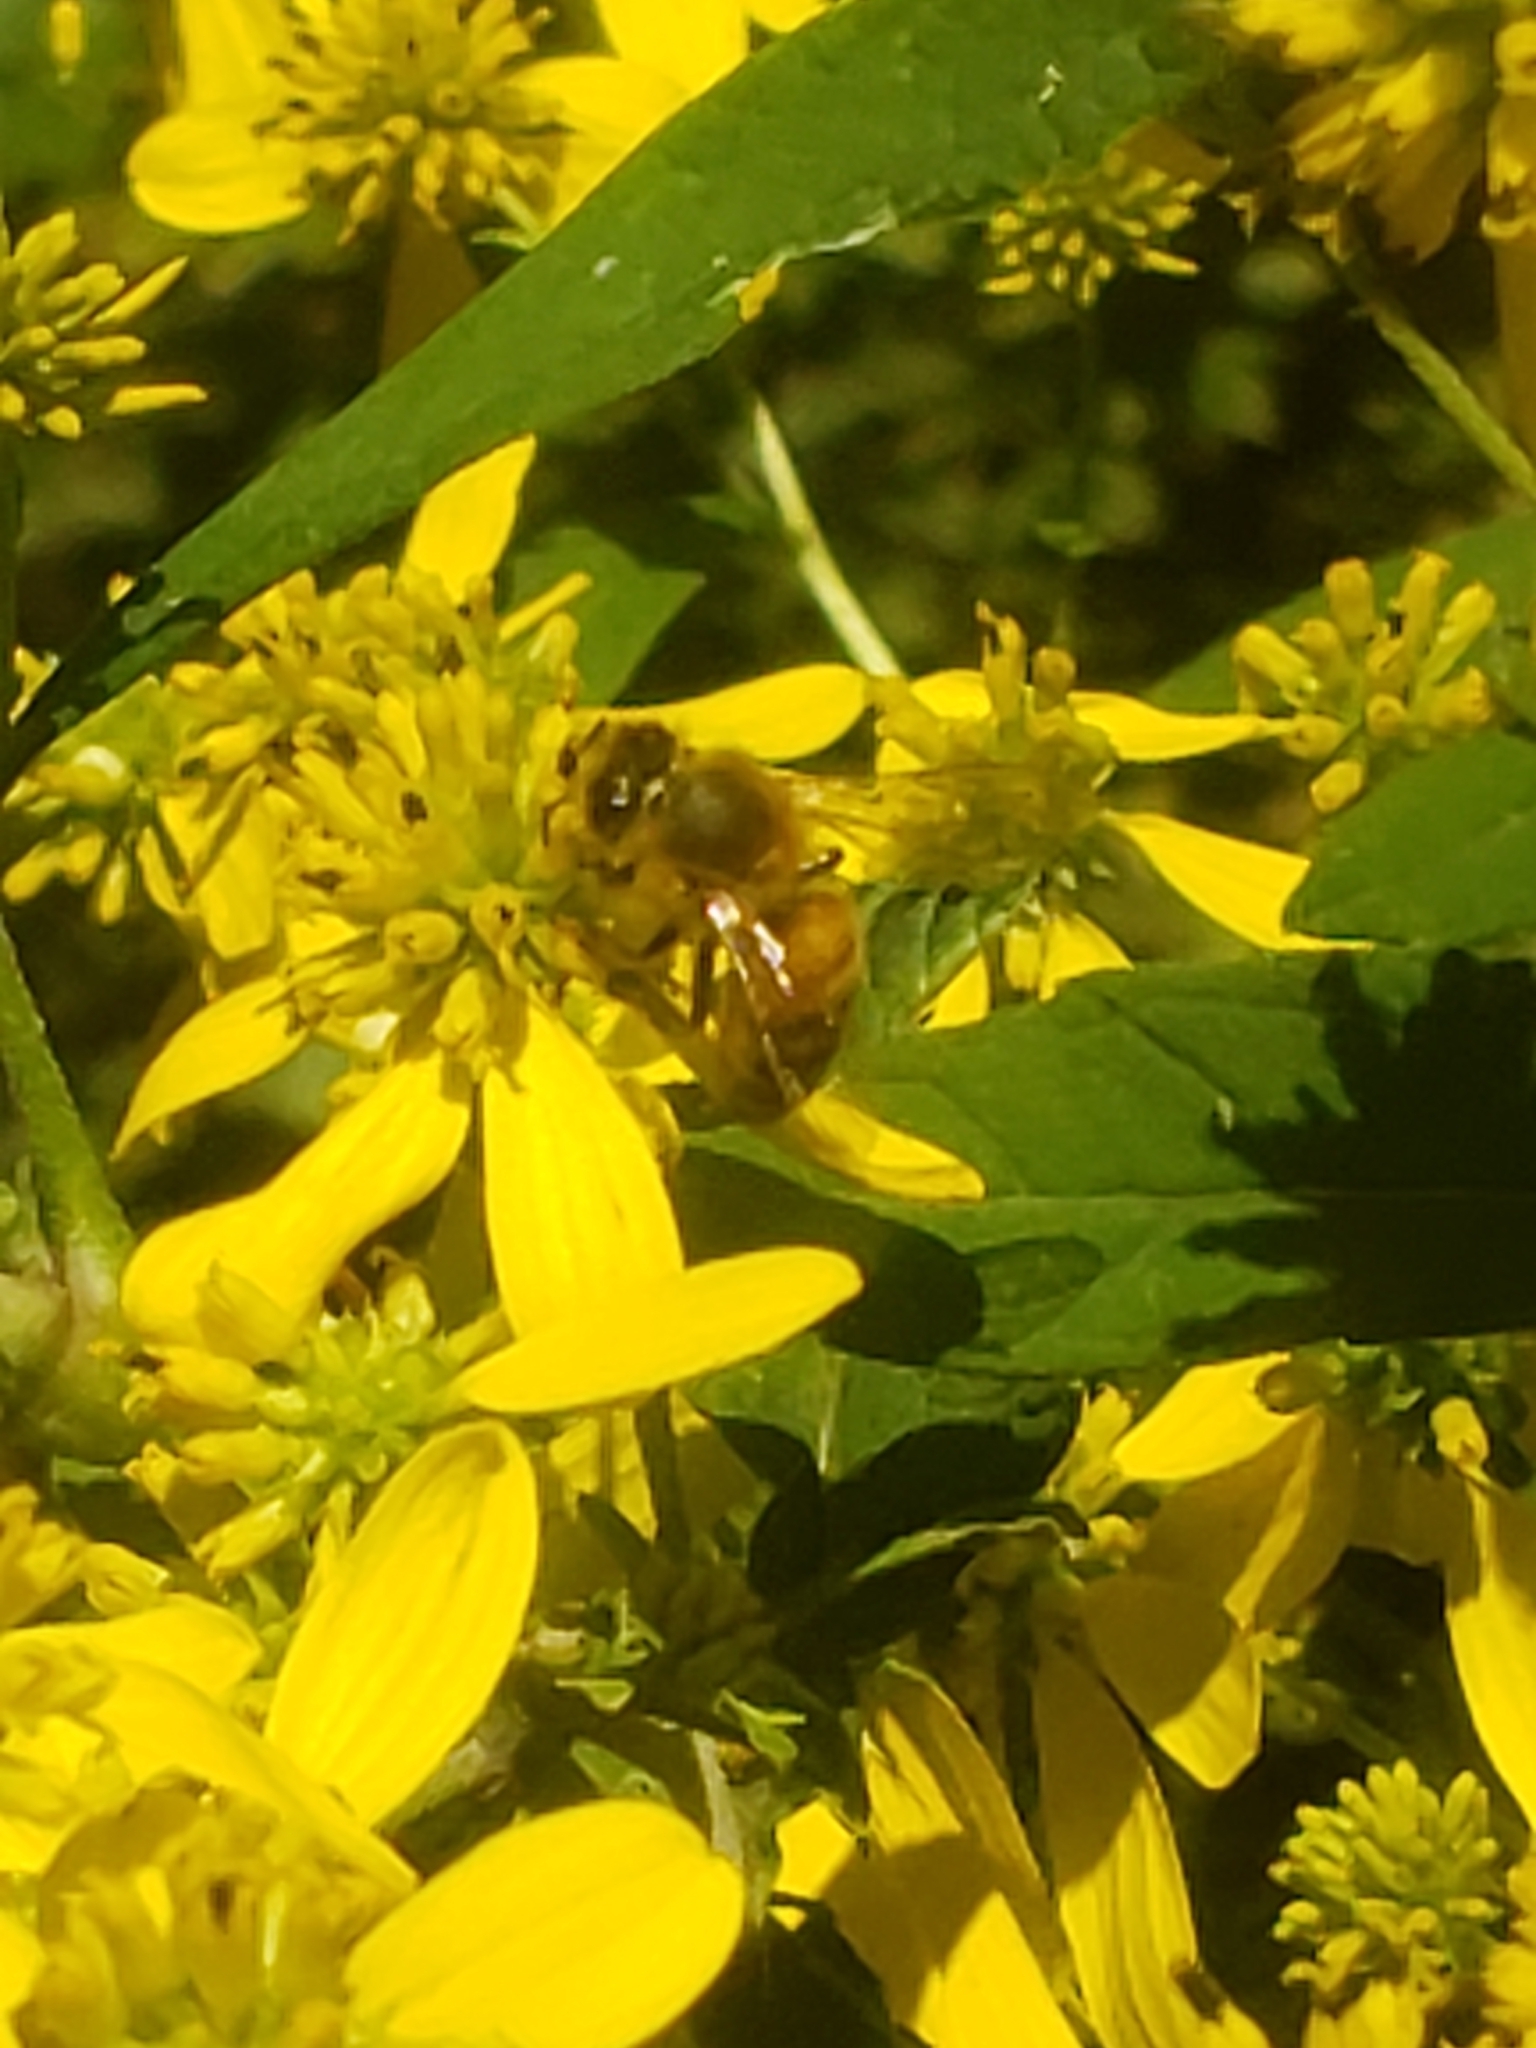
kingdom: Animalia
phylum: Arthropoda
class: Insecta
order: Hymenoptera
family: Apidae
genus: Apis
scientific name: Apis mellifera
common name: Honey bee
